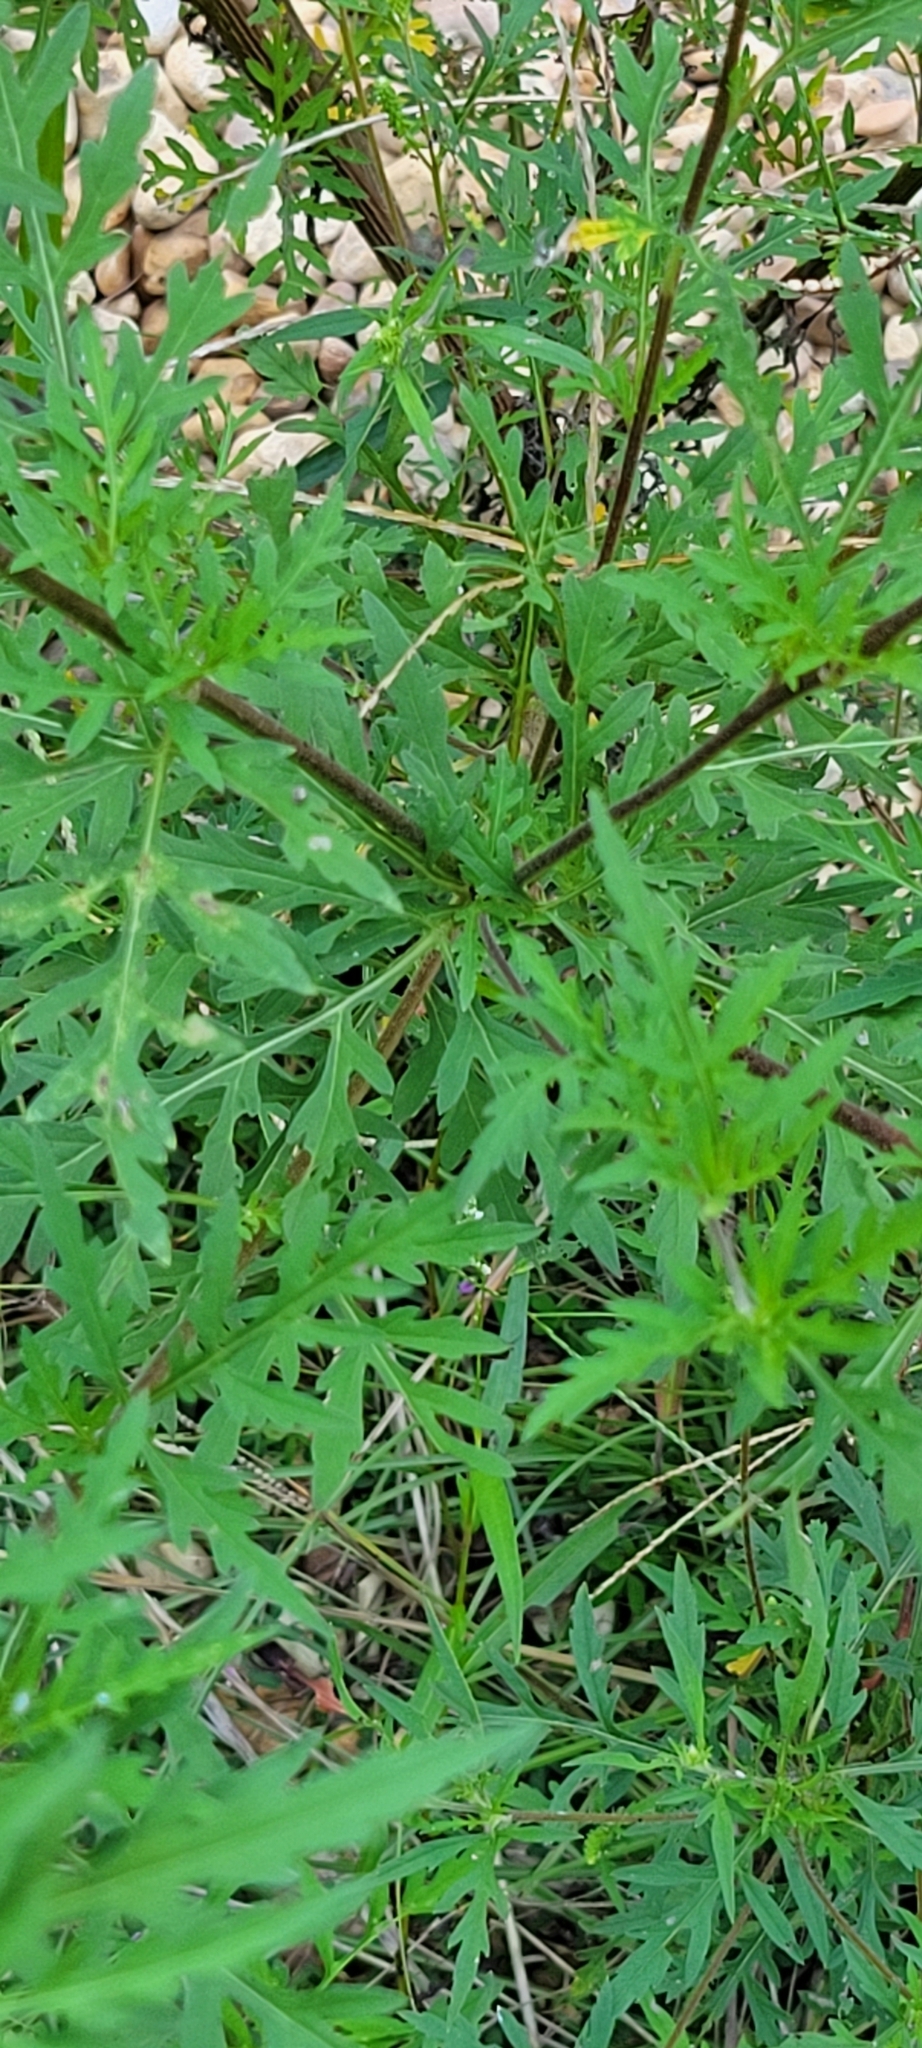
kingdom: Plantae
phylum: Tracheophyta
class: Magnoliopsida
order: Asterales
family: Asteraceae
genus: Ambrosia
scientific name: Ambrosia artemisiifolia
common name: Annual ragweed
